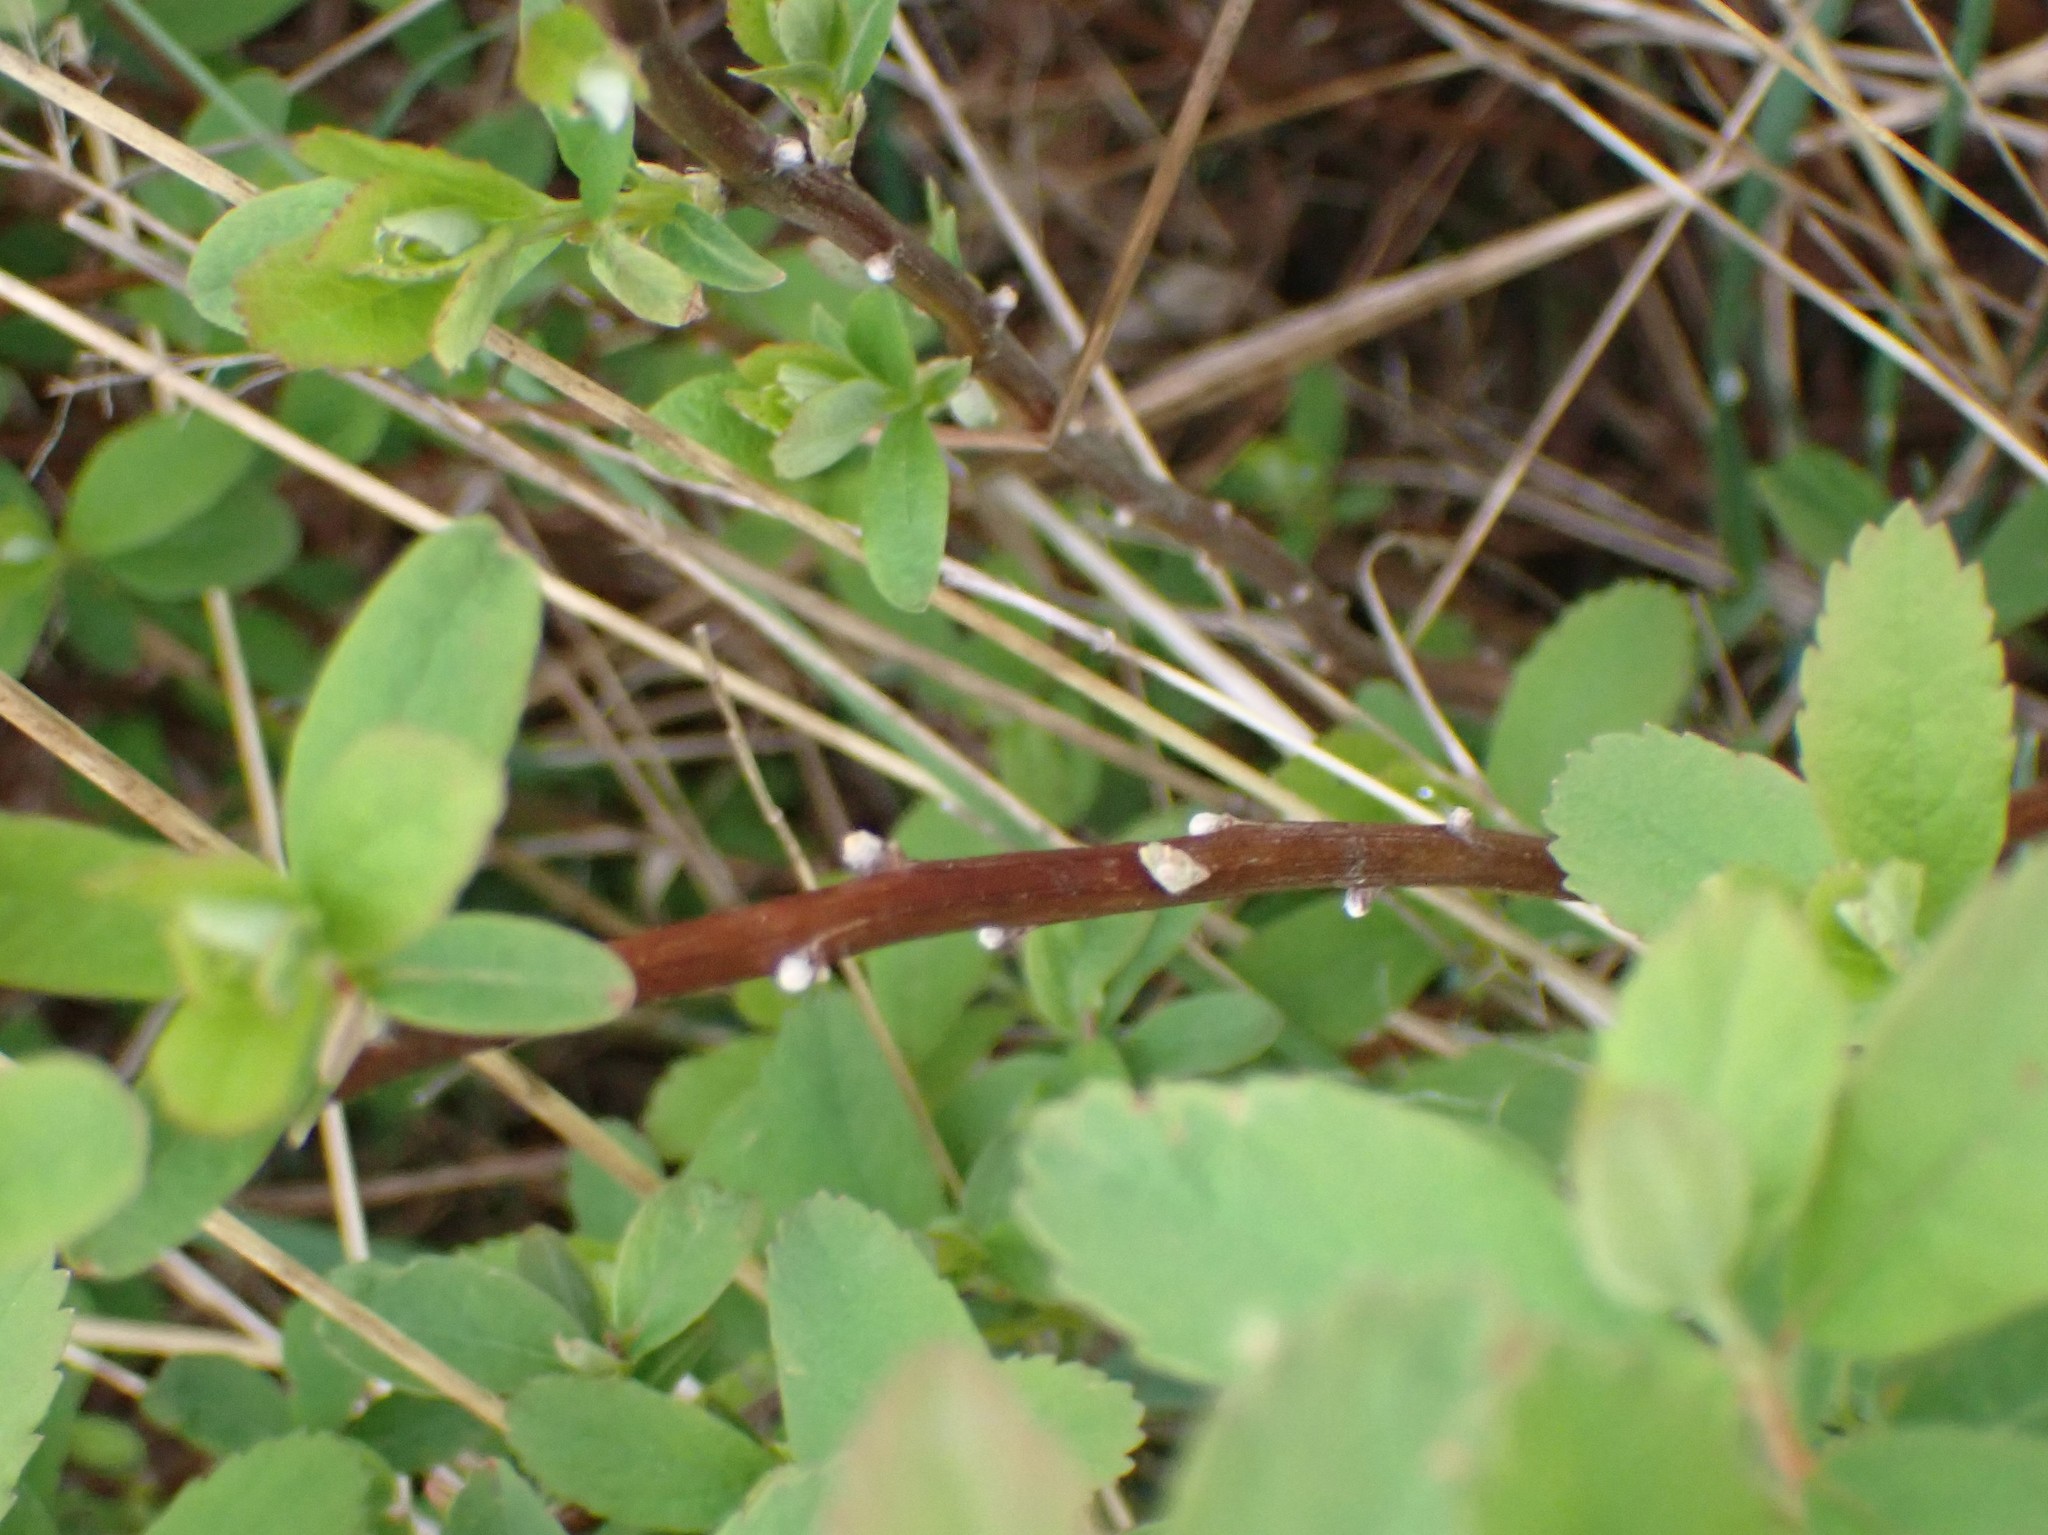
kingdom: Plantae
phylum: Tracheophyta
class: Magnoliopsida
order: Rosales
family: Rosaceae
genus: Spiraea
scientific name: Spiraea douglasii
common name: Steeplebush
